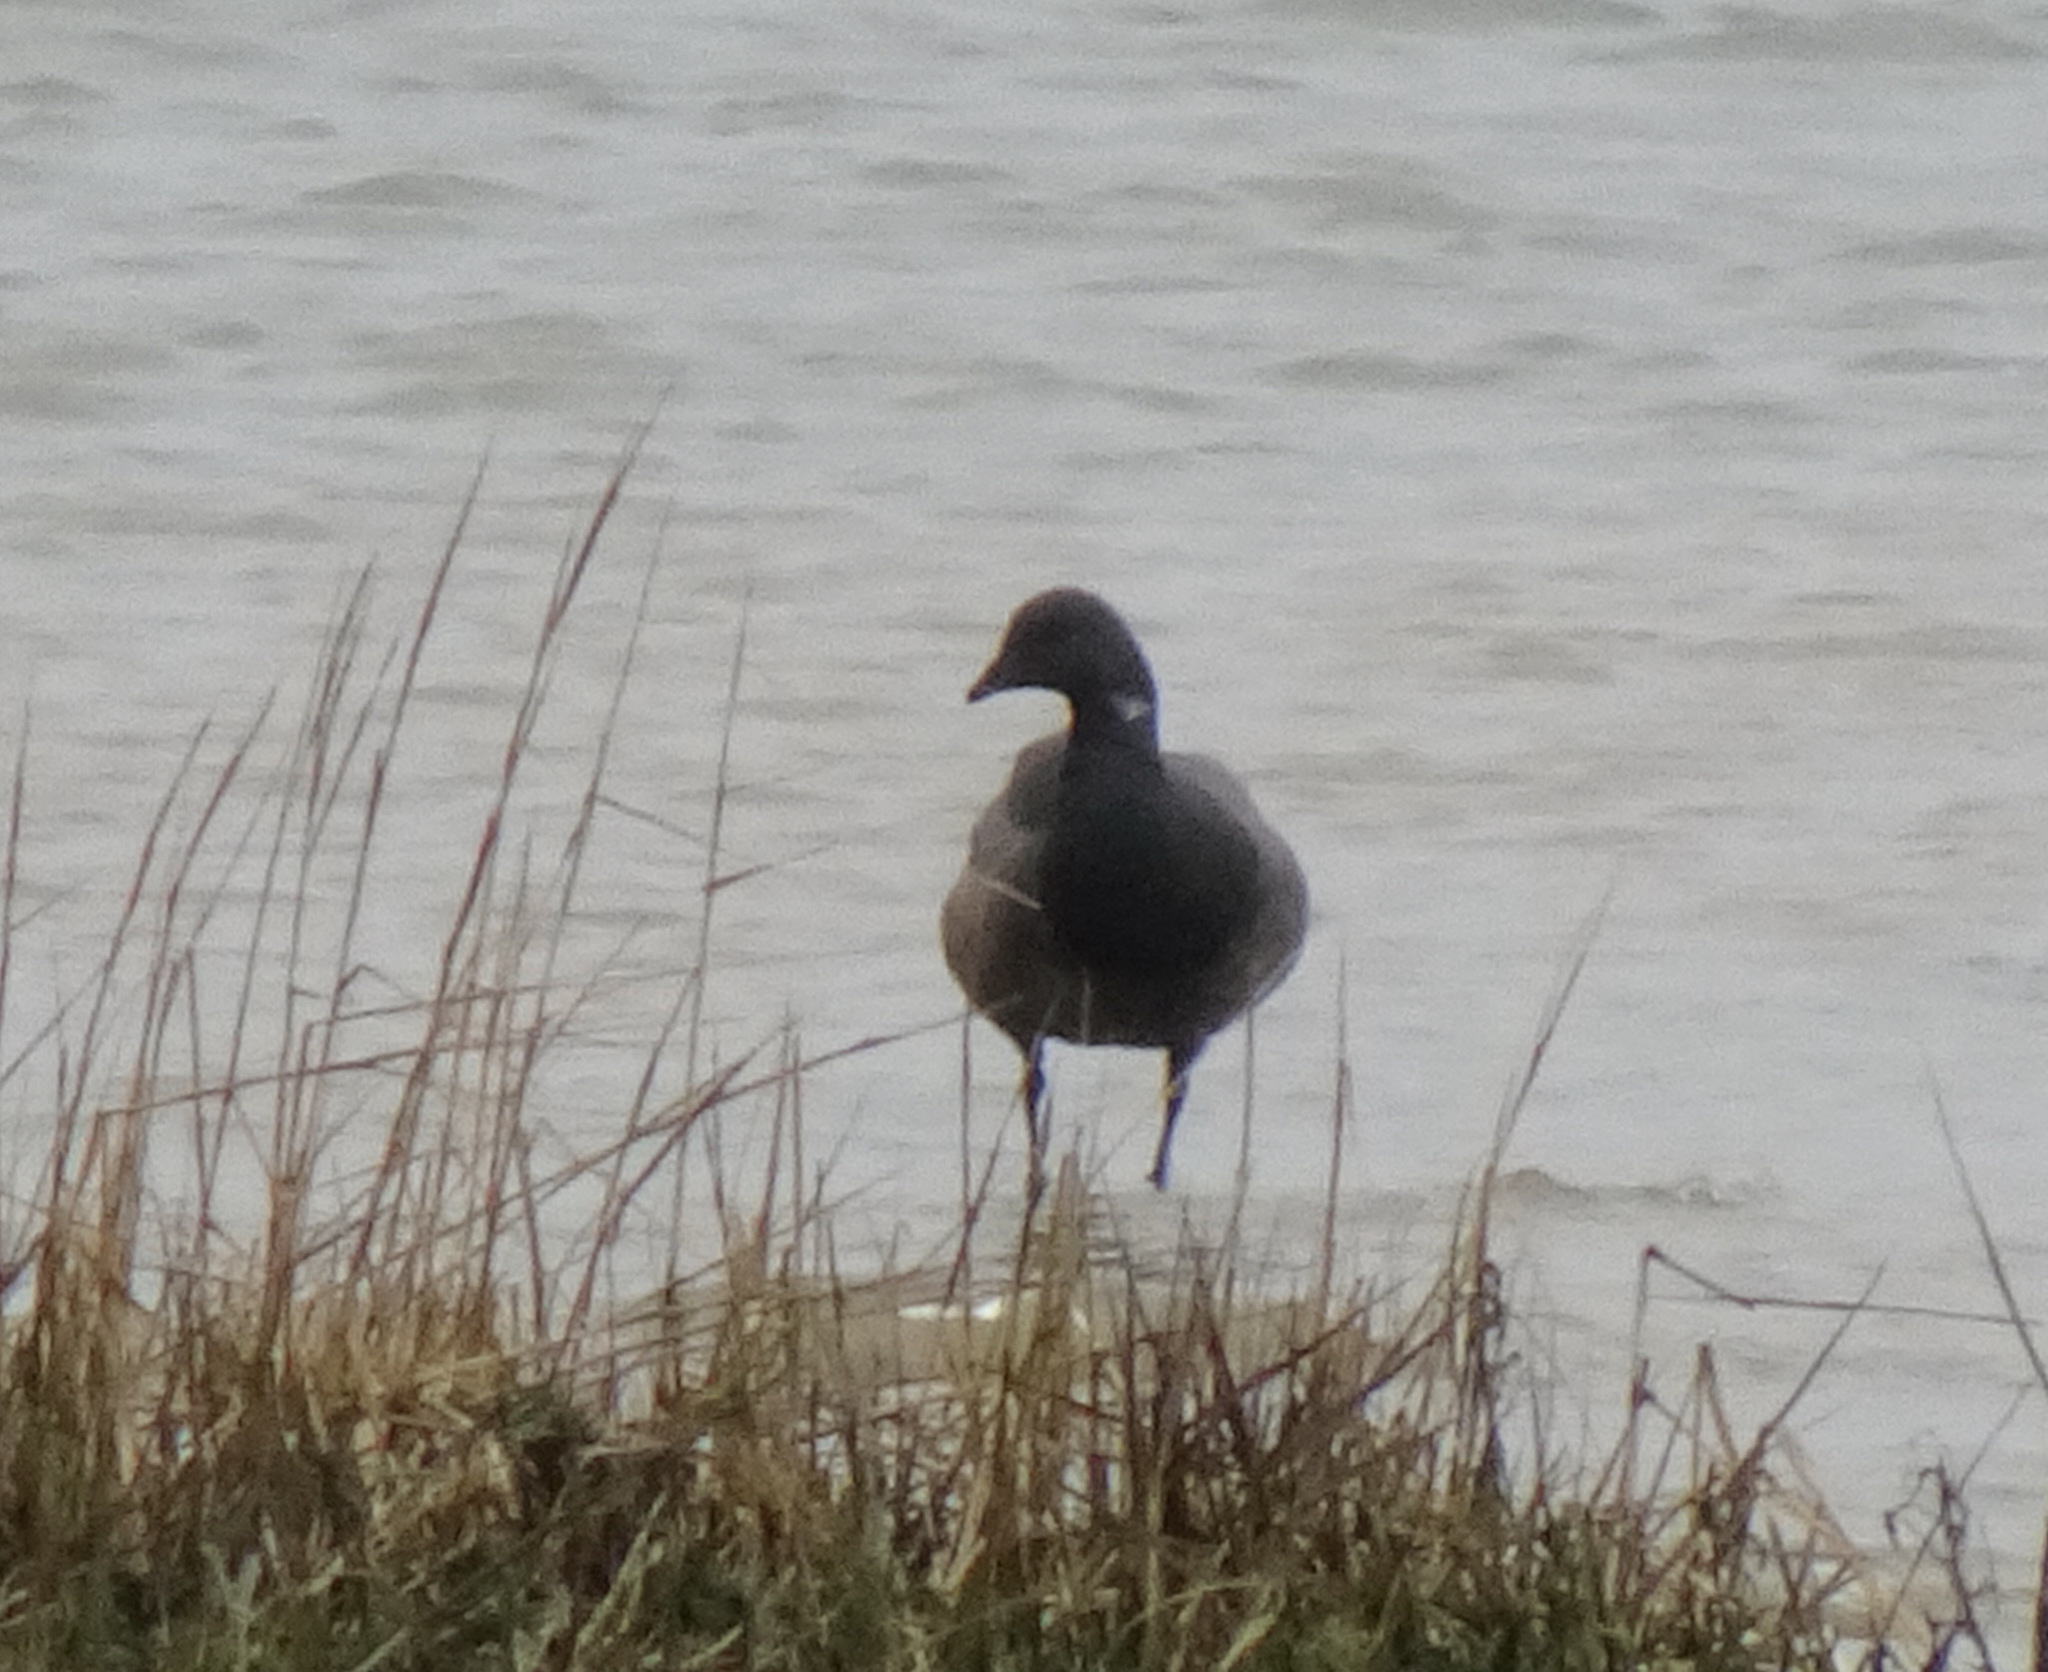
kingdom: Animalia
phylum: Chordata
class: Aves
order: Anseriformes
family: Anatidae
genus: Branta
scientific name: Branta bernicla
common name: Brant goose
